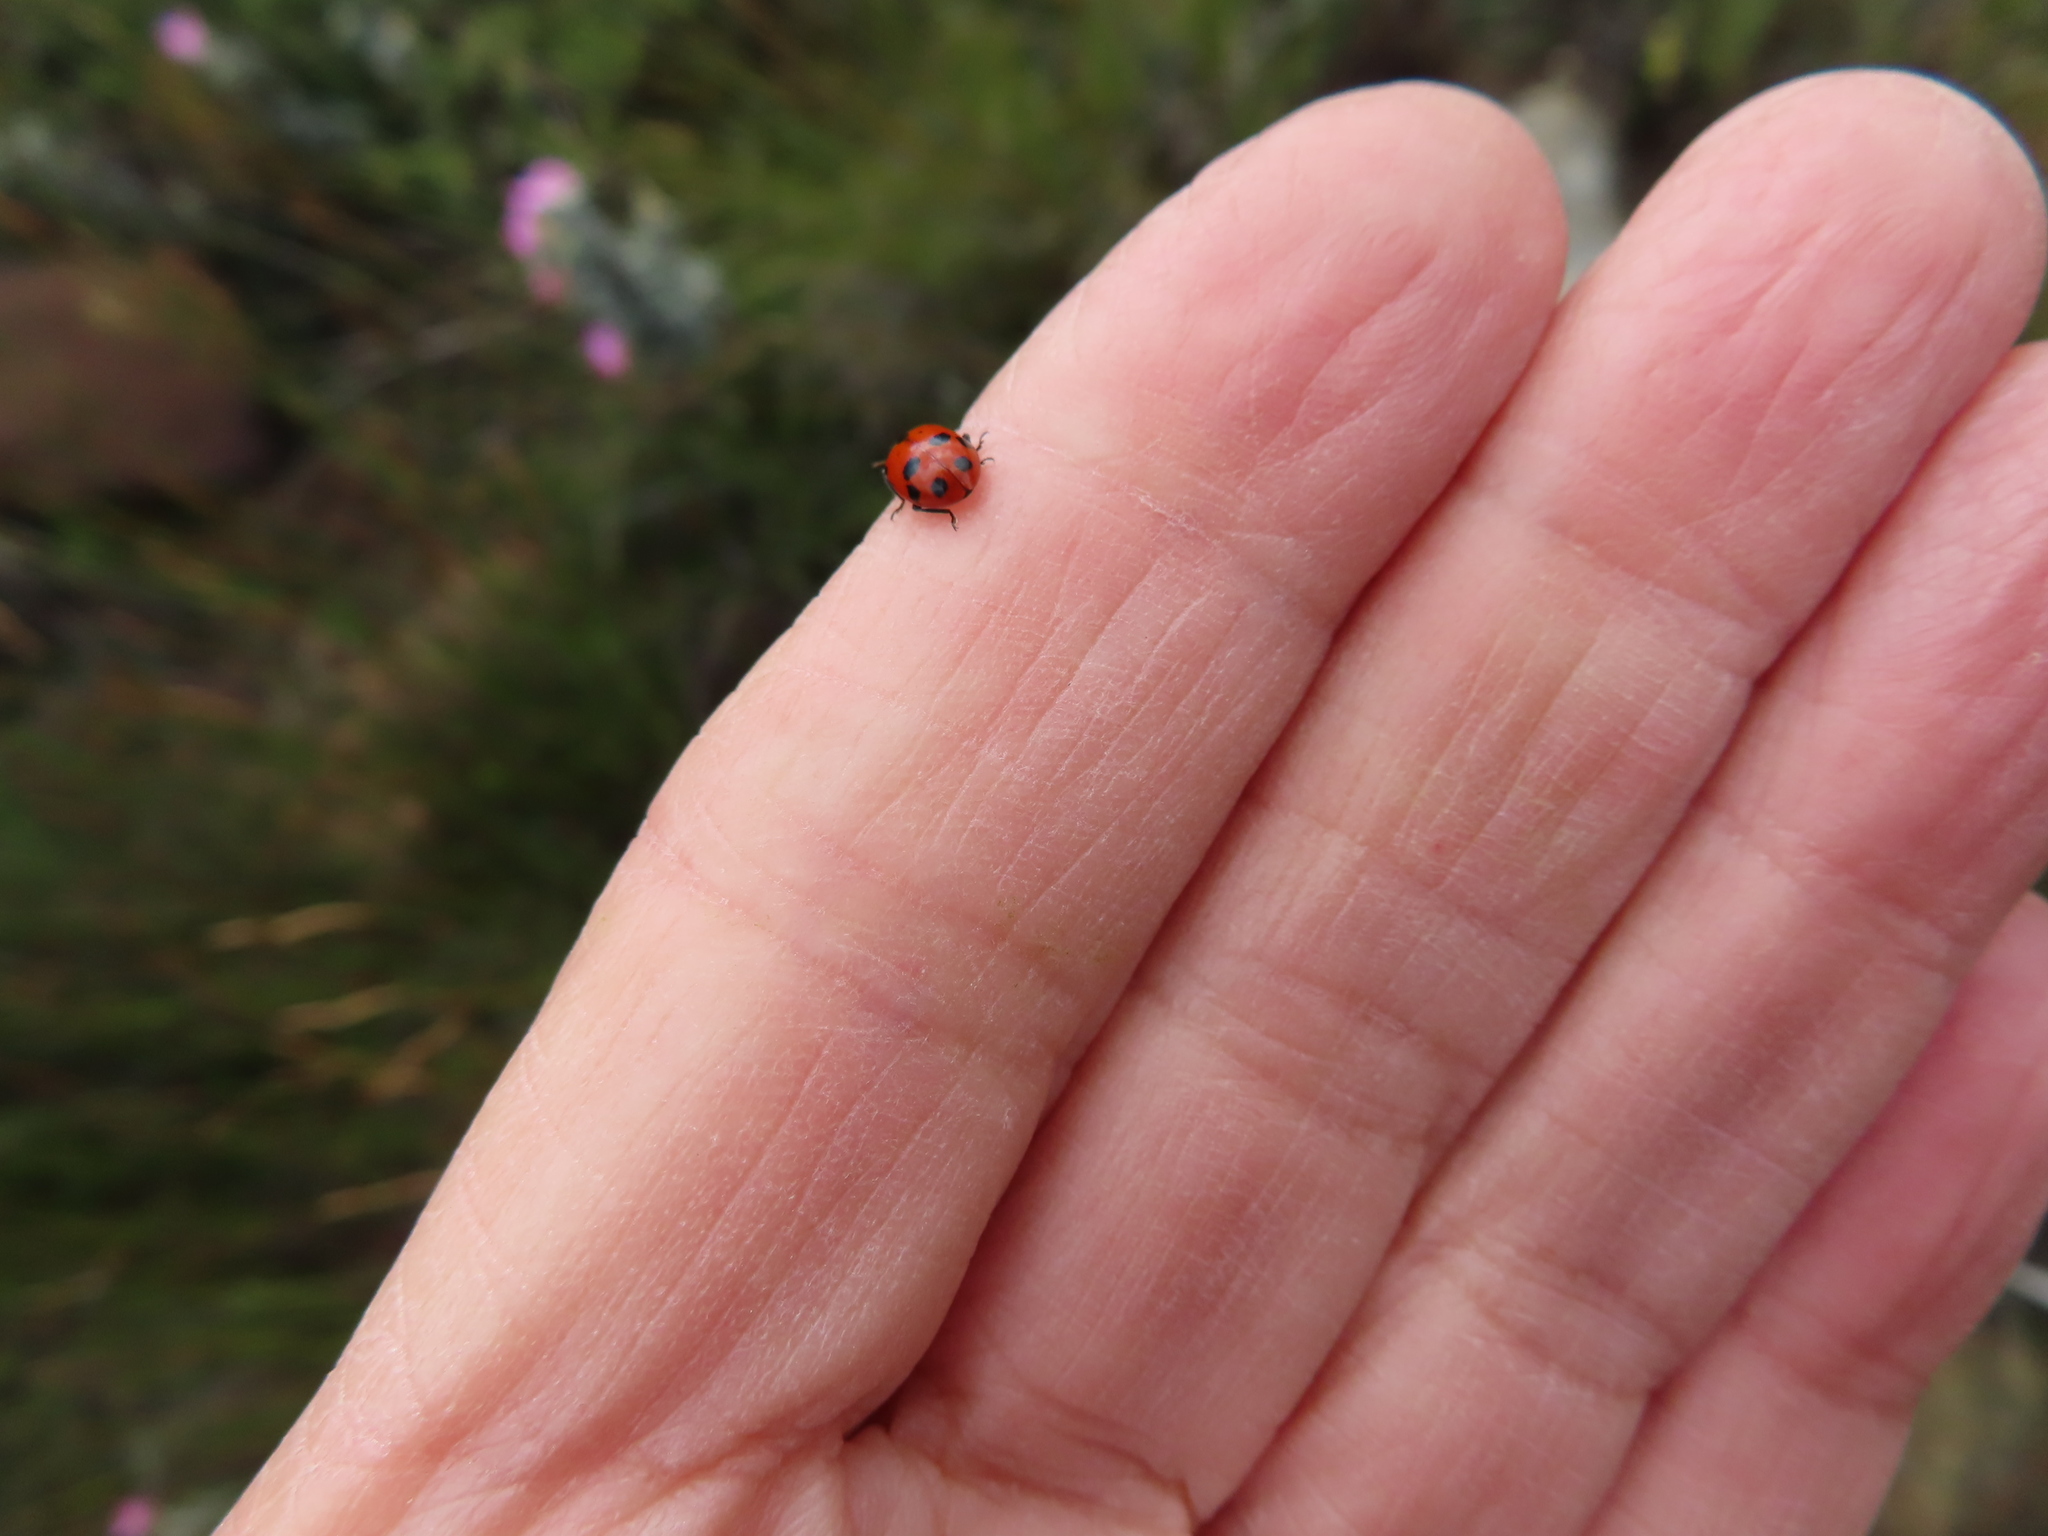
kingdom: Animalia
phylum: Arthropoda
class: Insecta
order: Coleoptera
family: Coccinellidae
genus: Hippodamia
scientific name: Hippodamia variegata
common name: Ladybird beetle
